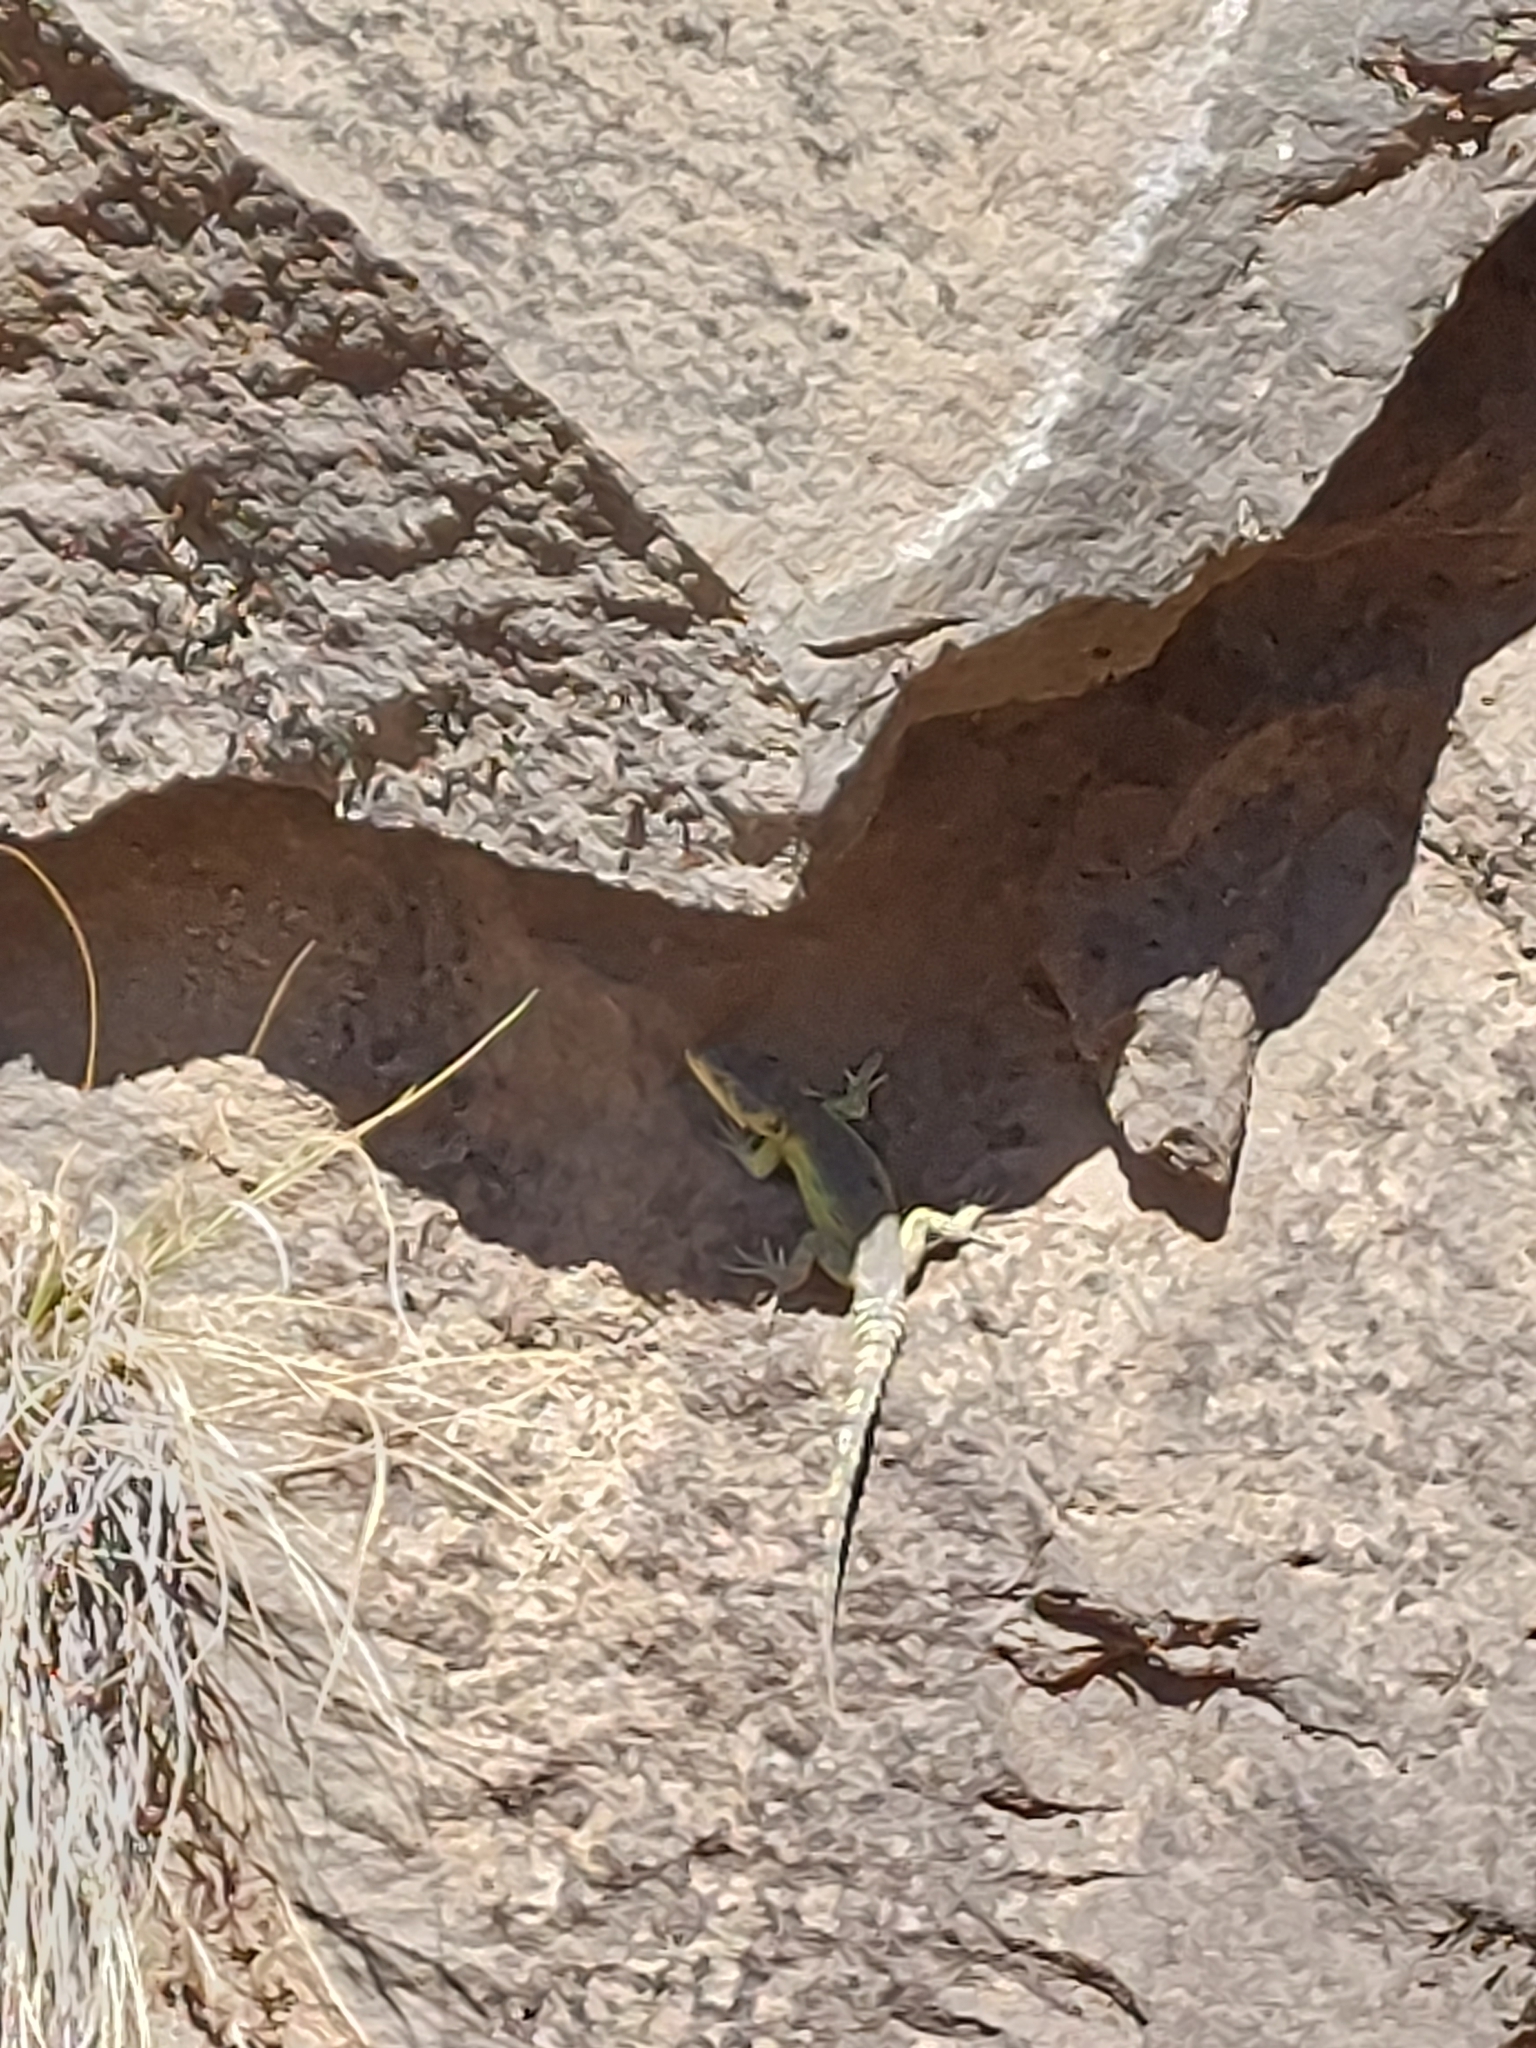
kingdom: Animalia
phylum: Chordata
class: Squamata
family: Cordylidae
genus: Pseudocordylus
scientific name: Pseudocordylus subviridis
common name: Drakensberg crag lizard
